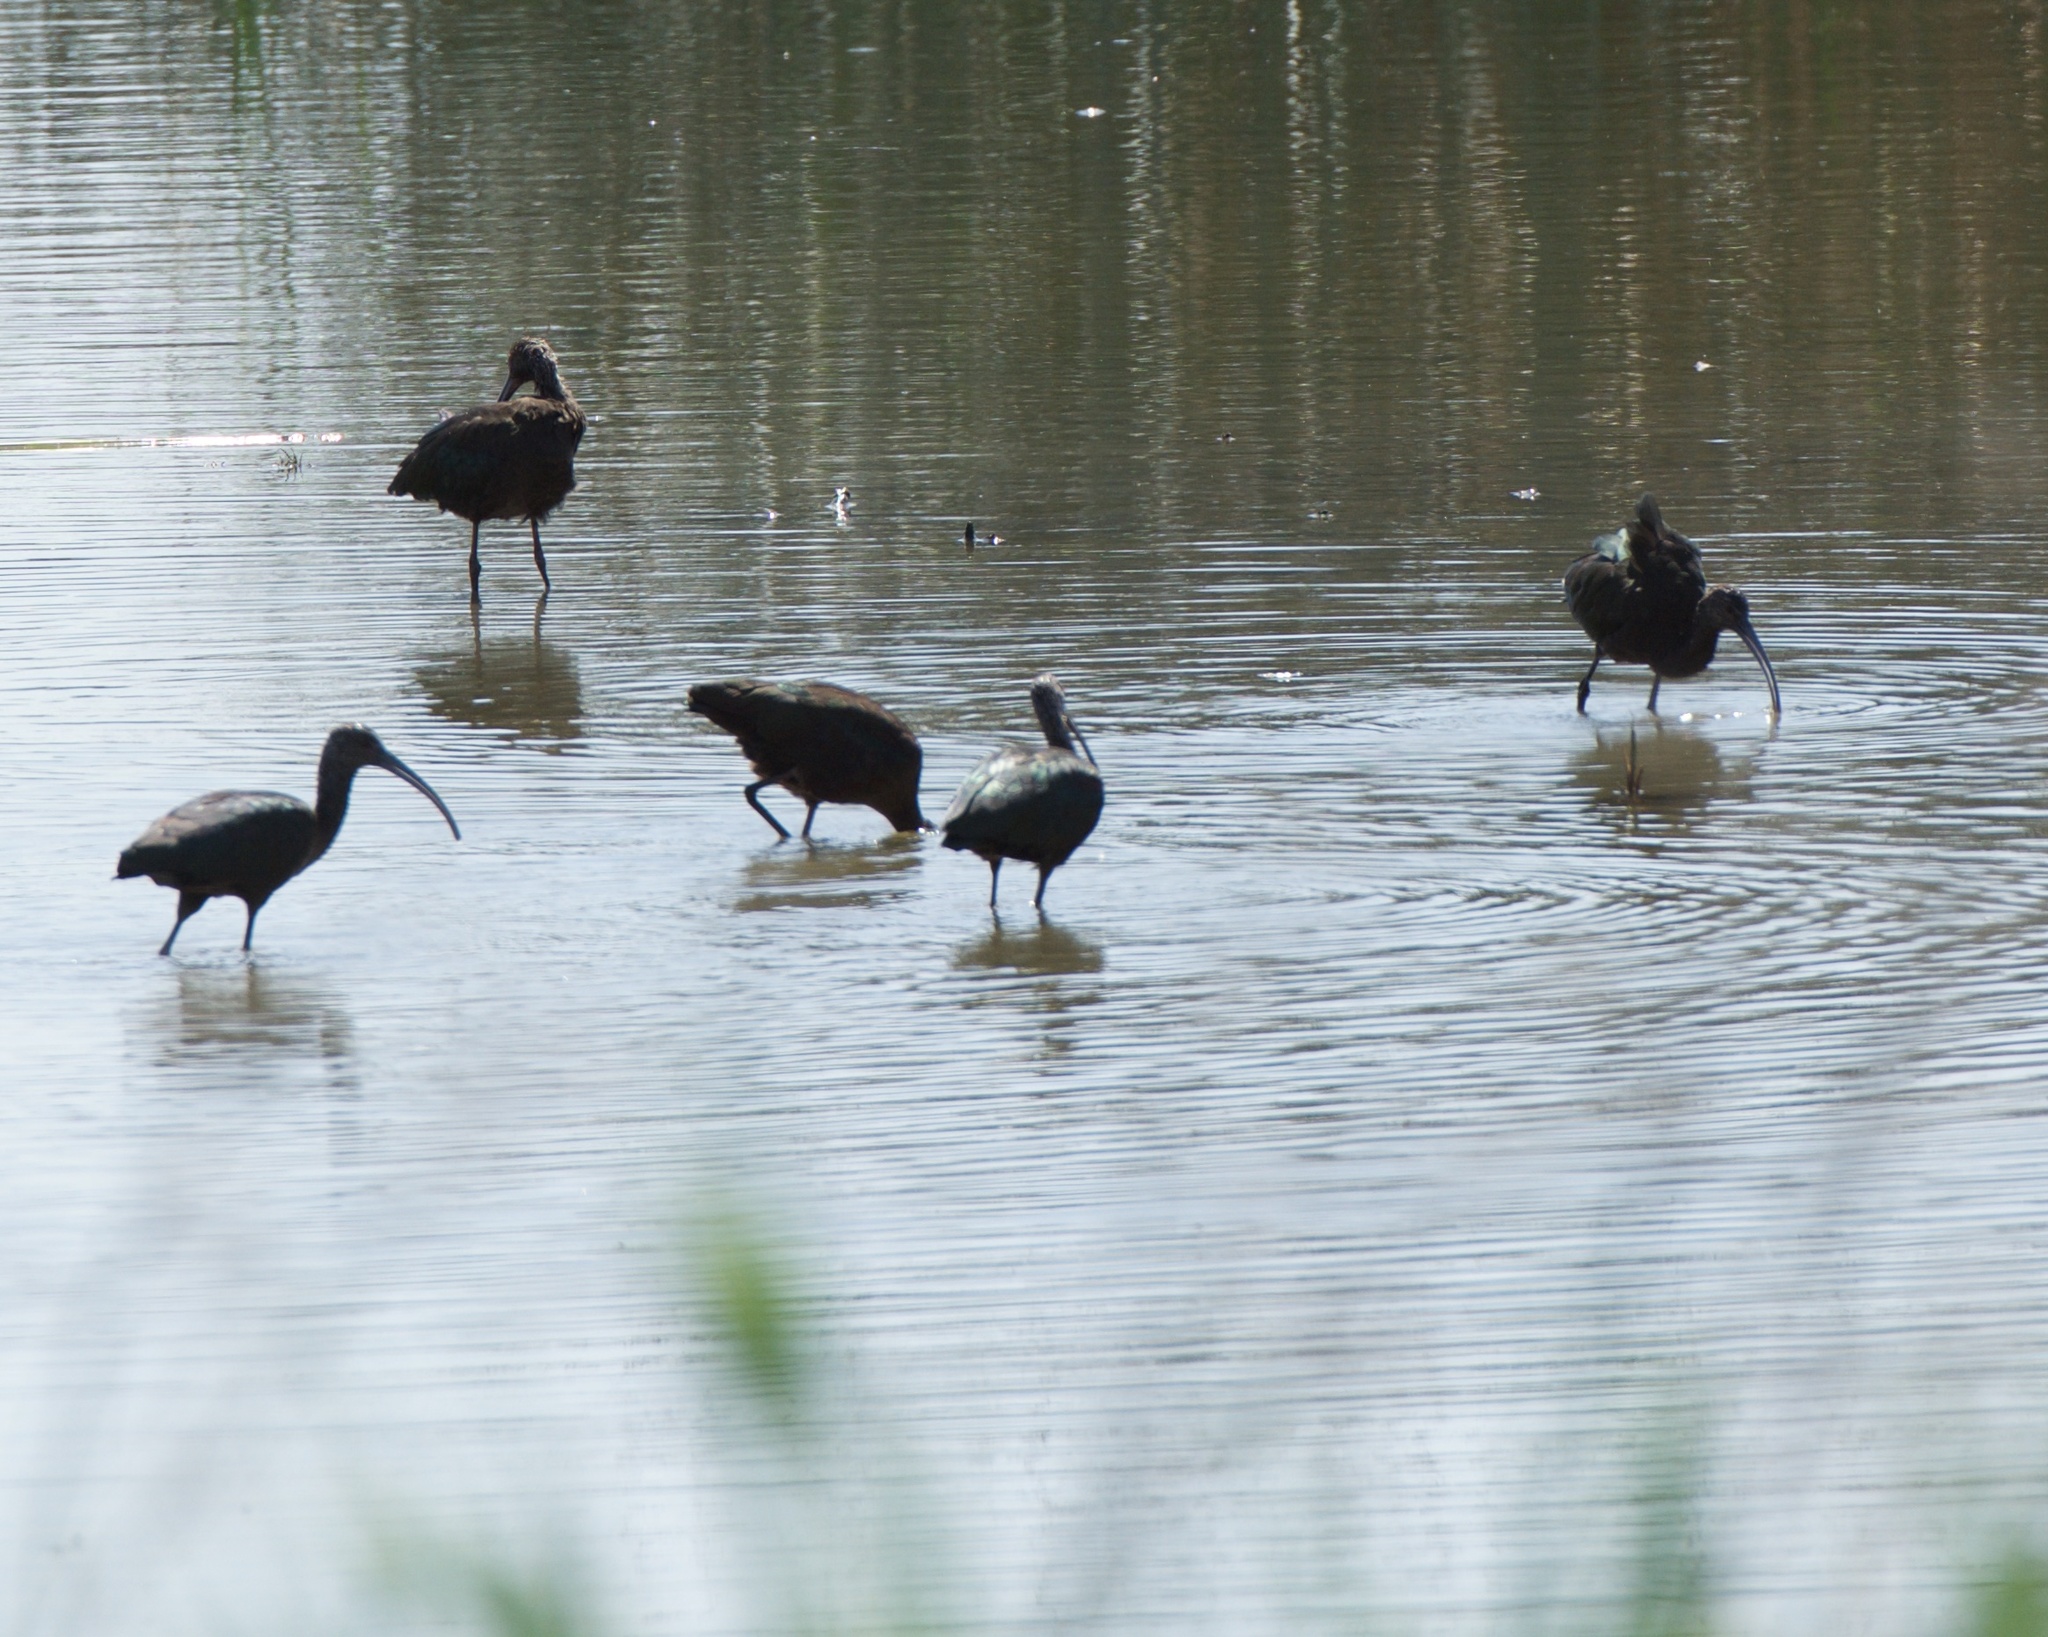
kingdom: Animalia
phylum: Chordata
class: Aves
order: Pelecaniformes
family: Threskiornithidae
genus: Plegadis
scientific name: Plegadis chihi
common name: White-faced ibis
